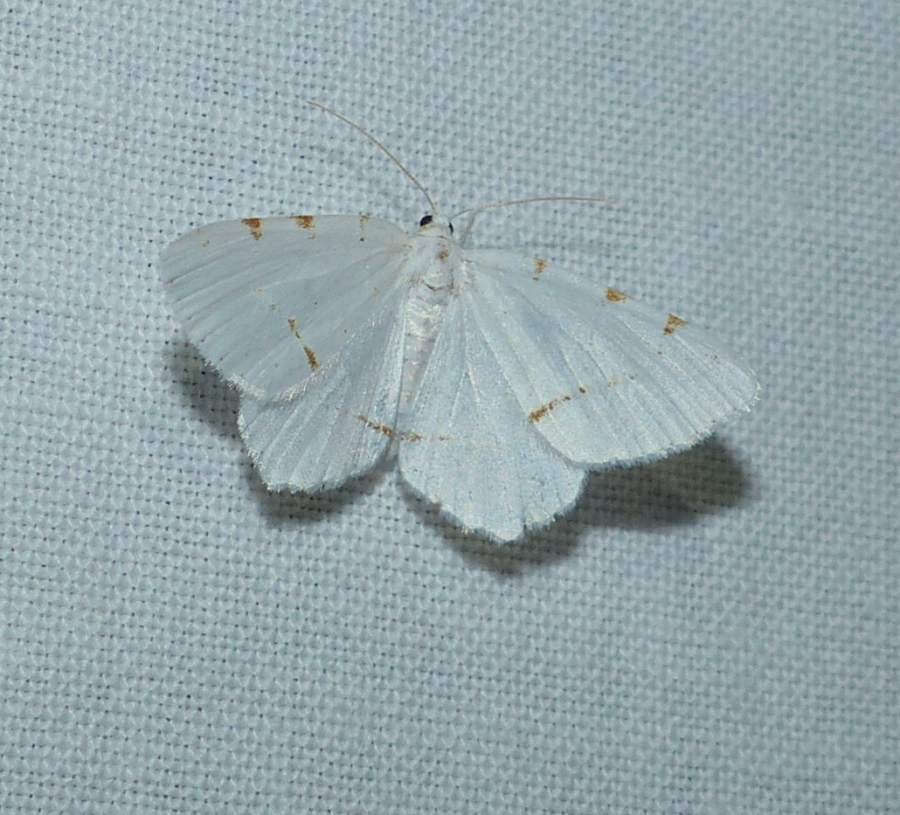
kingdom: Animalia
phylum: Arthropoda
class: Insecta
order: Lepidoptera
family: Geometridae
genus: Macaria
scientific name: Macaria pustularia
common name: Lesser maple spanworm moth
